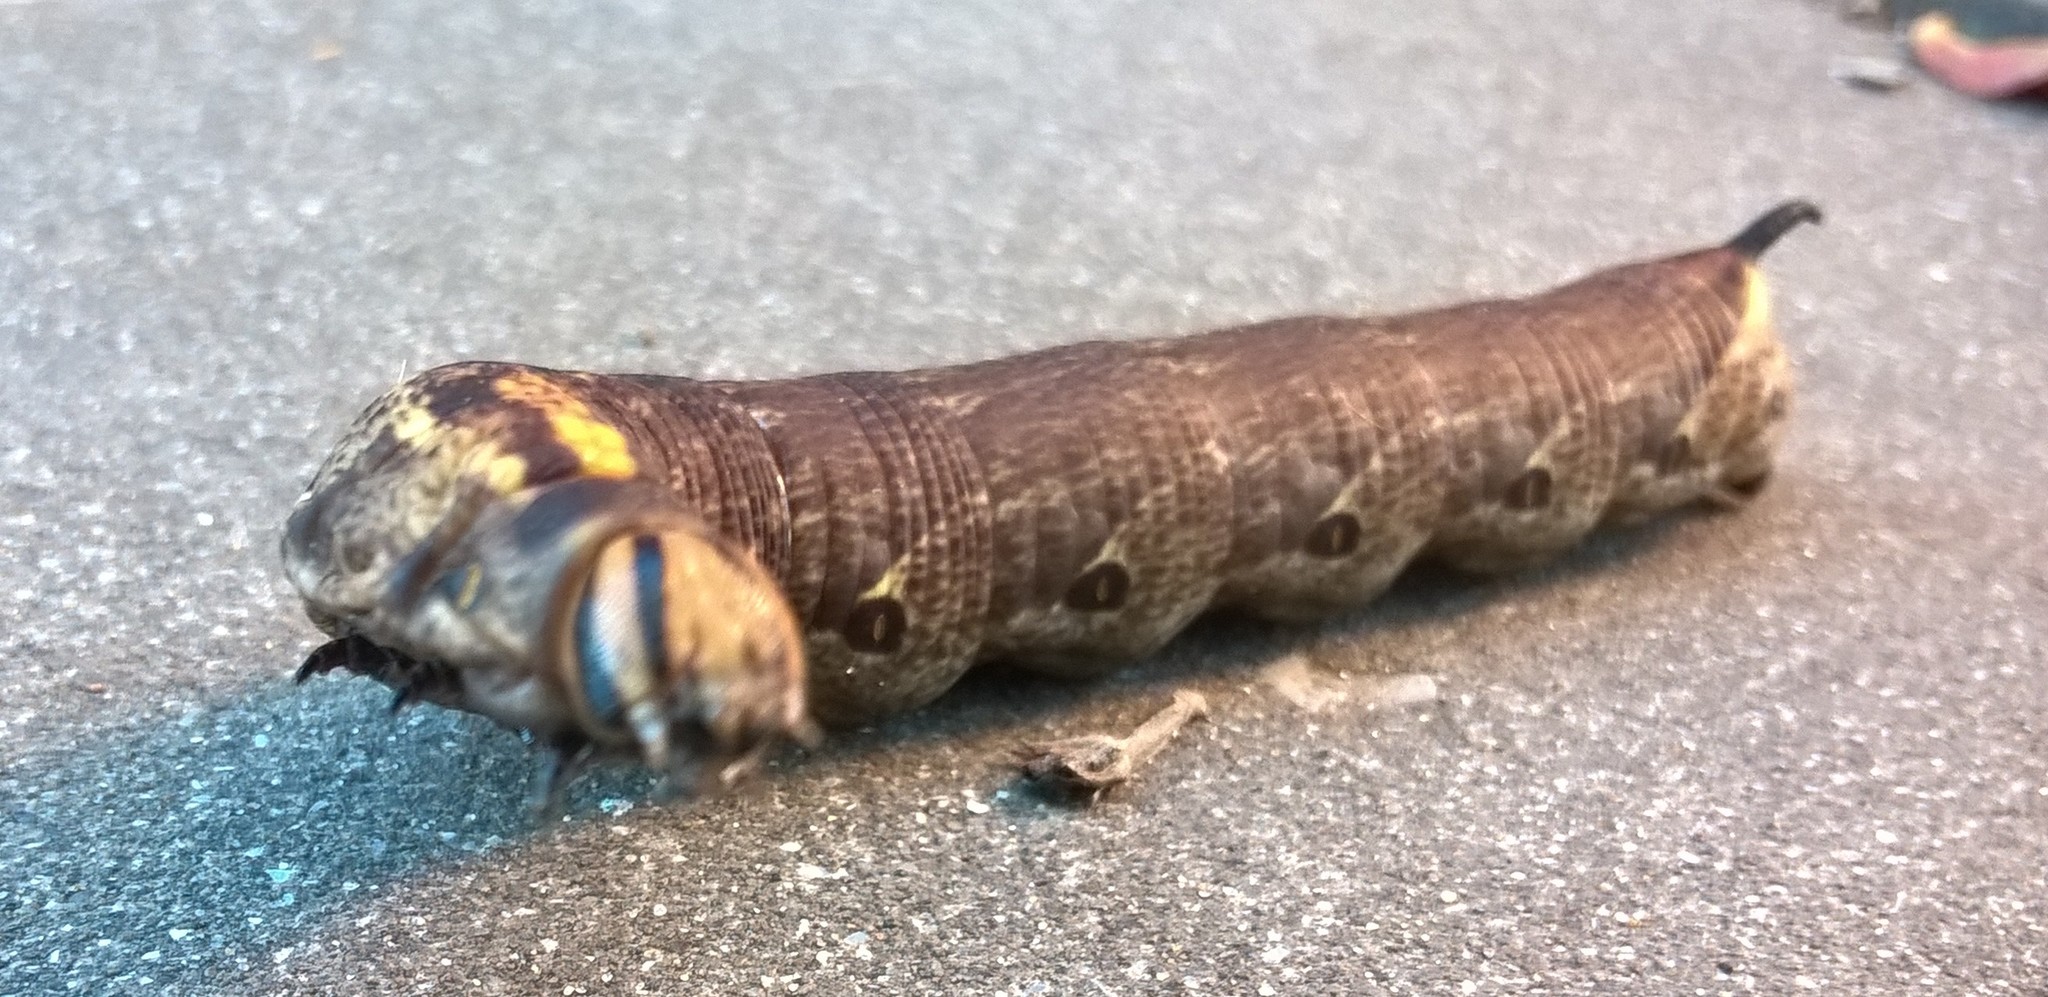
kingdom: Animalia
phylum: Arthropoda
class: Insecta
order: Lepidoptera
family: Sphingidae
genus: Agrius
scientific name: Agrius cingulata
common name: Pink-spotted hawkmoth
